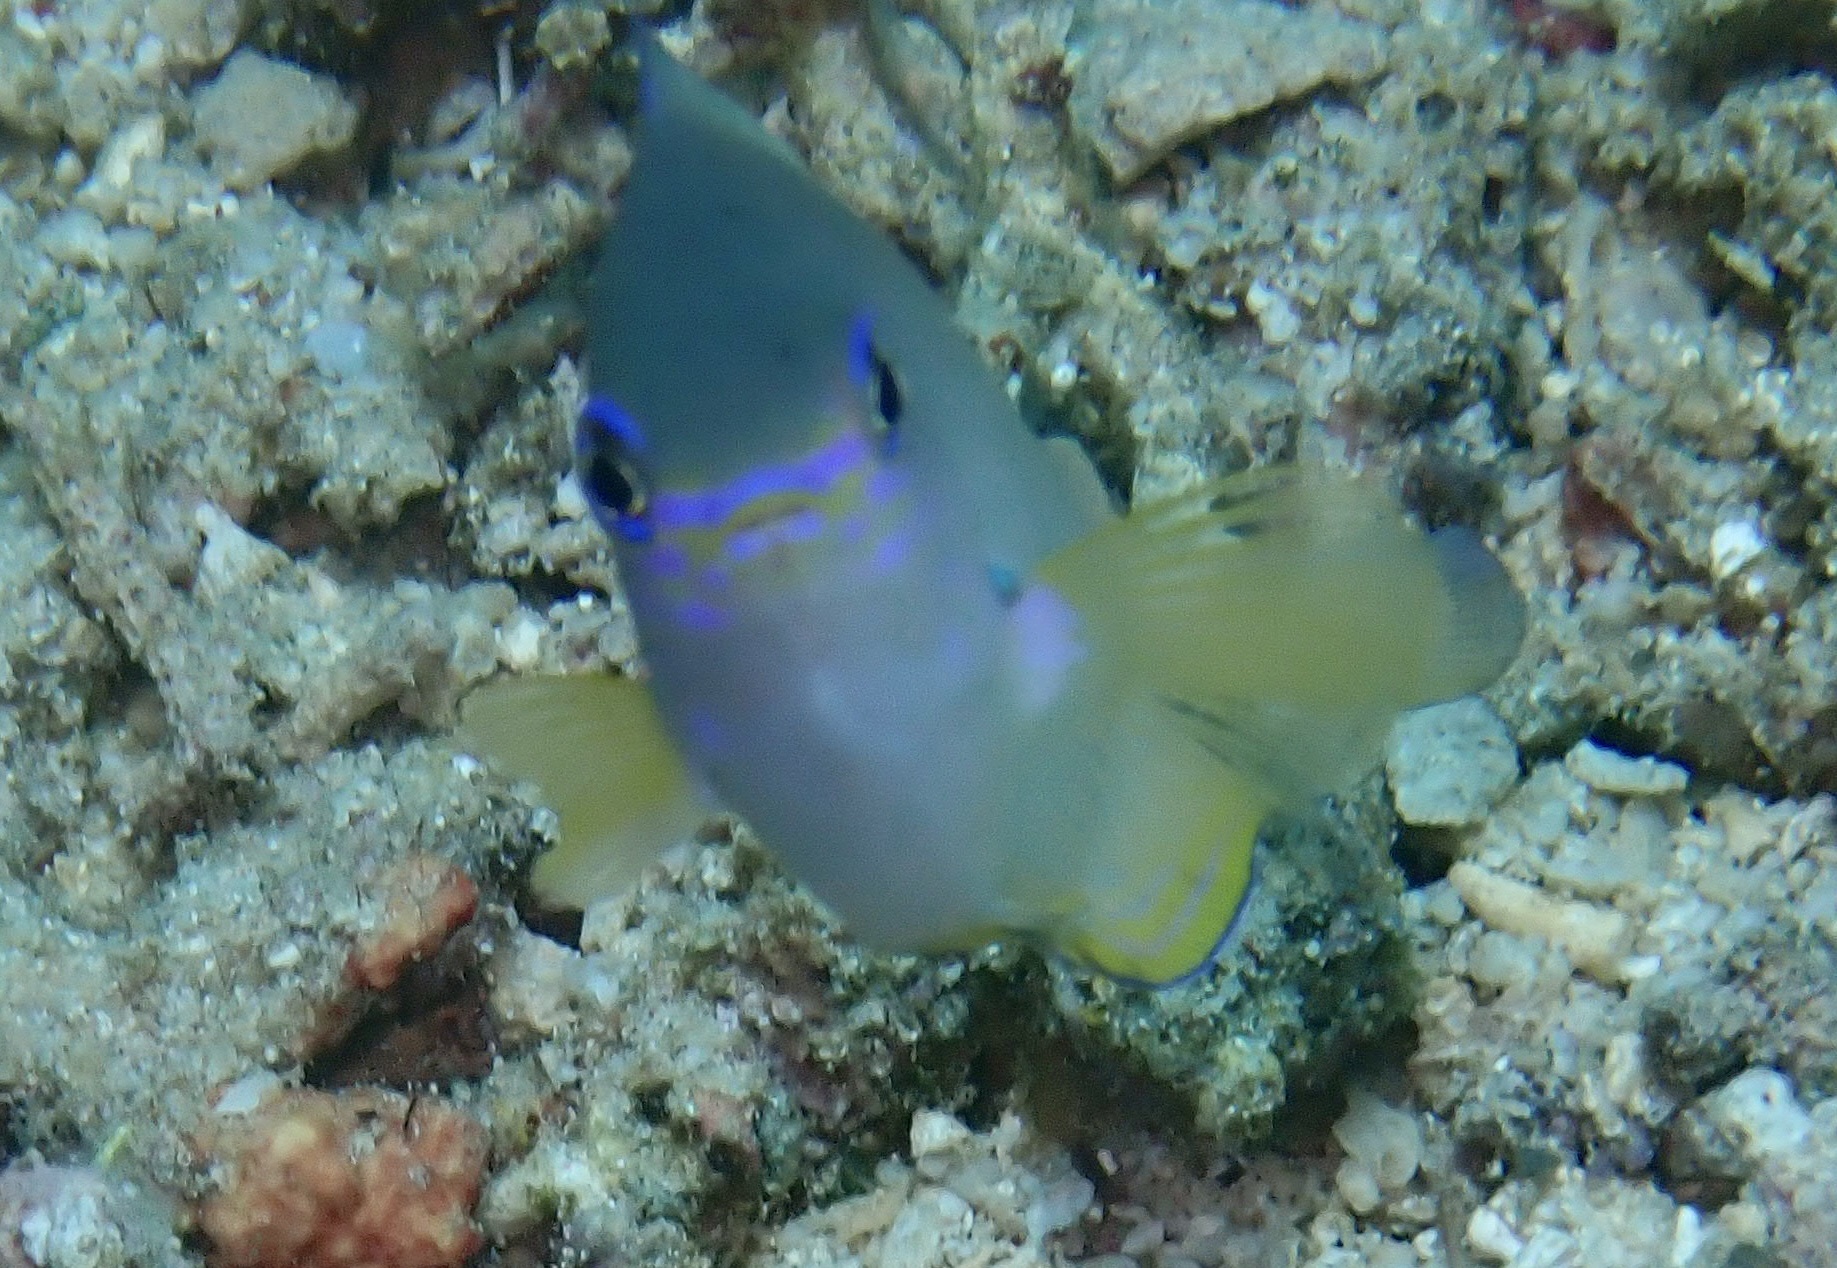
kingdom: Animalia
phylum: Chordata
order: Perciformes
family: Pomacentridae
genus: Pomacentrus
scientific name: Pomacentrus amboinensis
